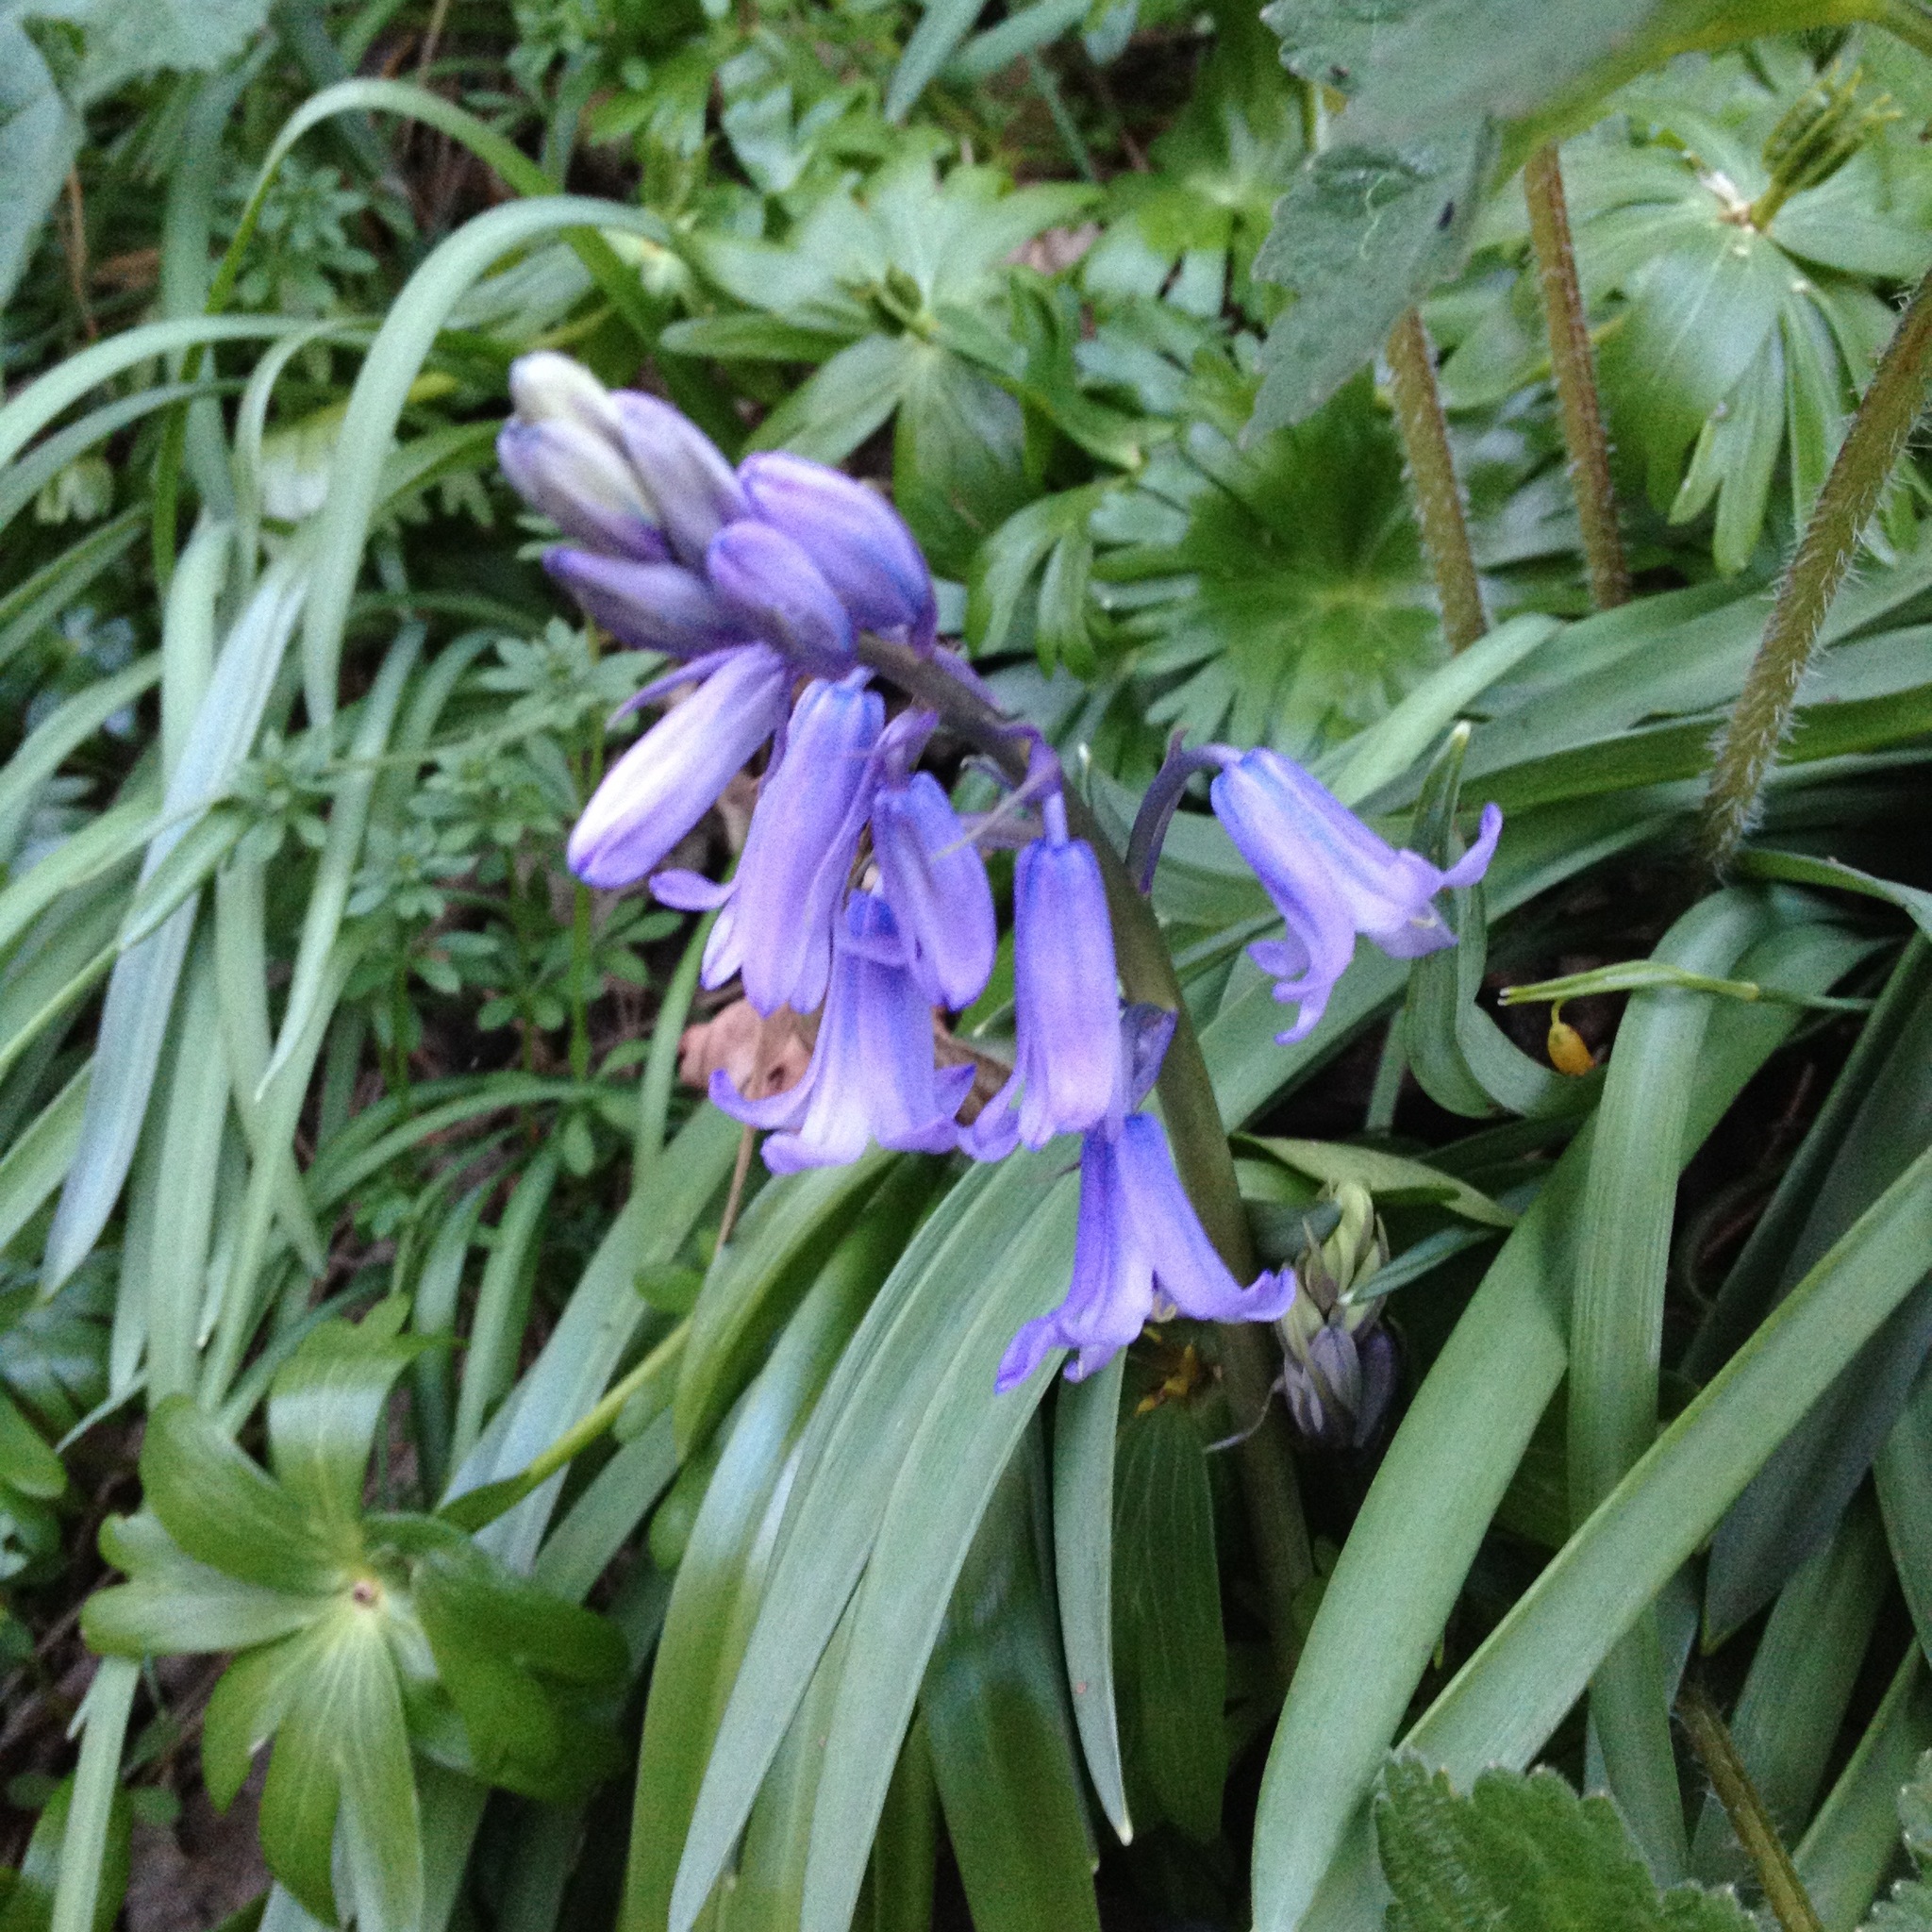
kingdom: Plantae
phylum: Tracheophyta
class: Liliopsida
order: Asparagales
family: Asparagaceae
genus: Hyacinthoides
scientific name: Hyacinthoides massartiana
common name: Hyacinthoides
